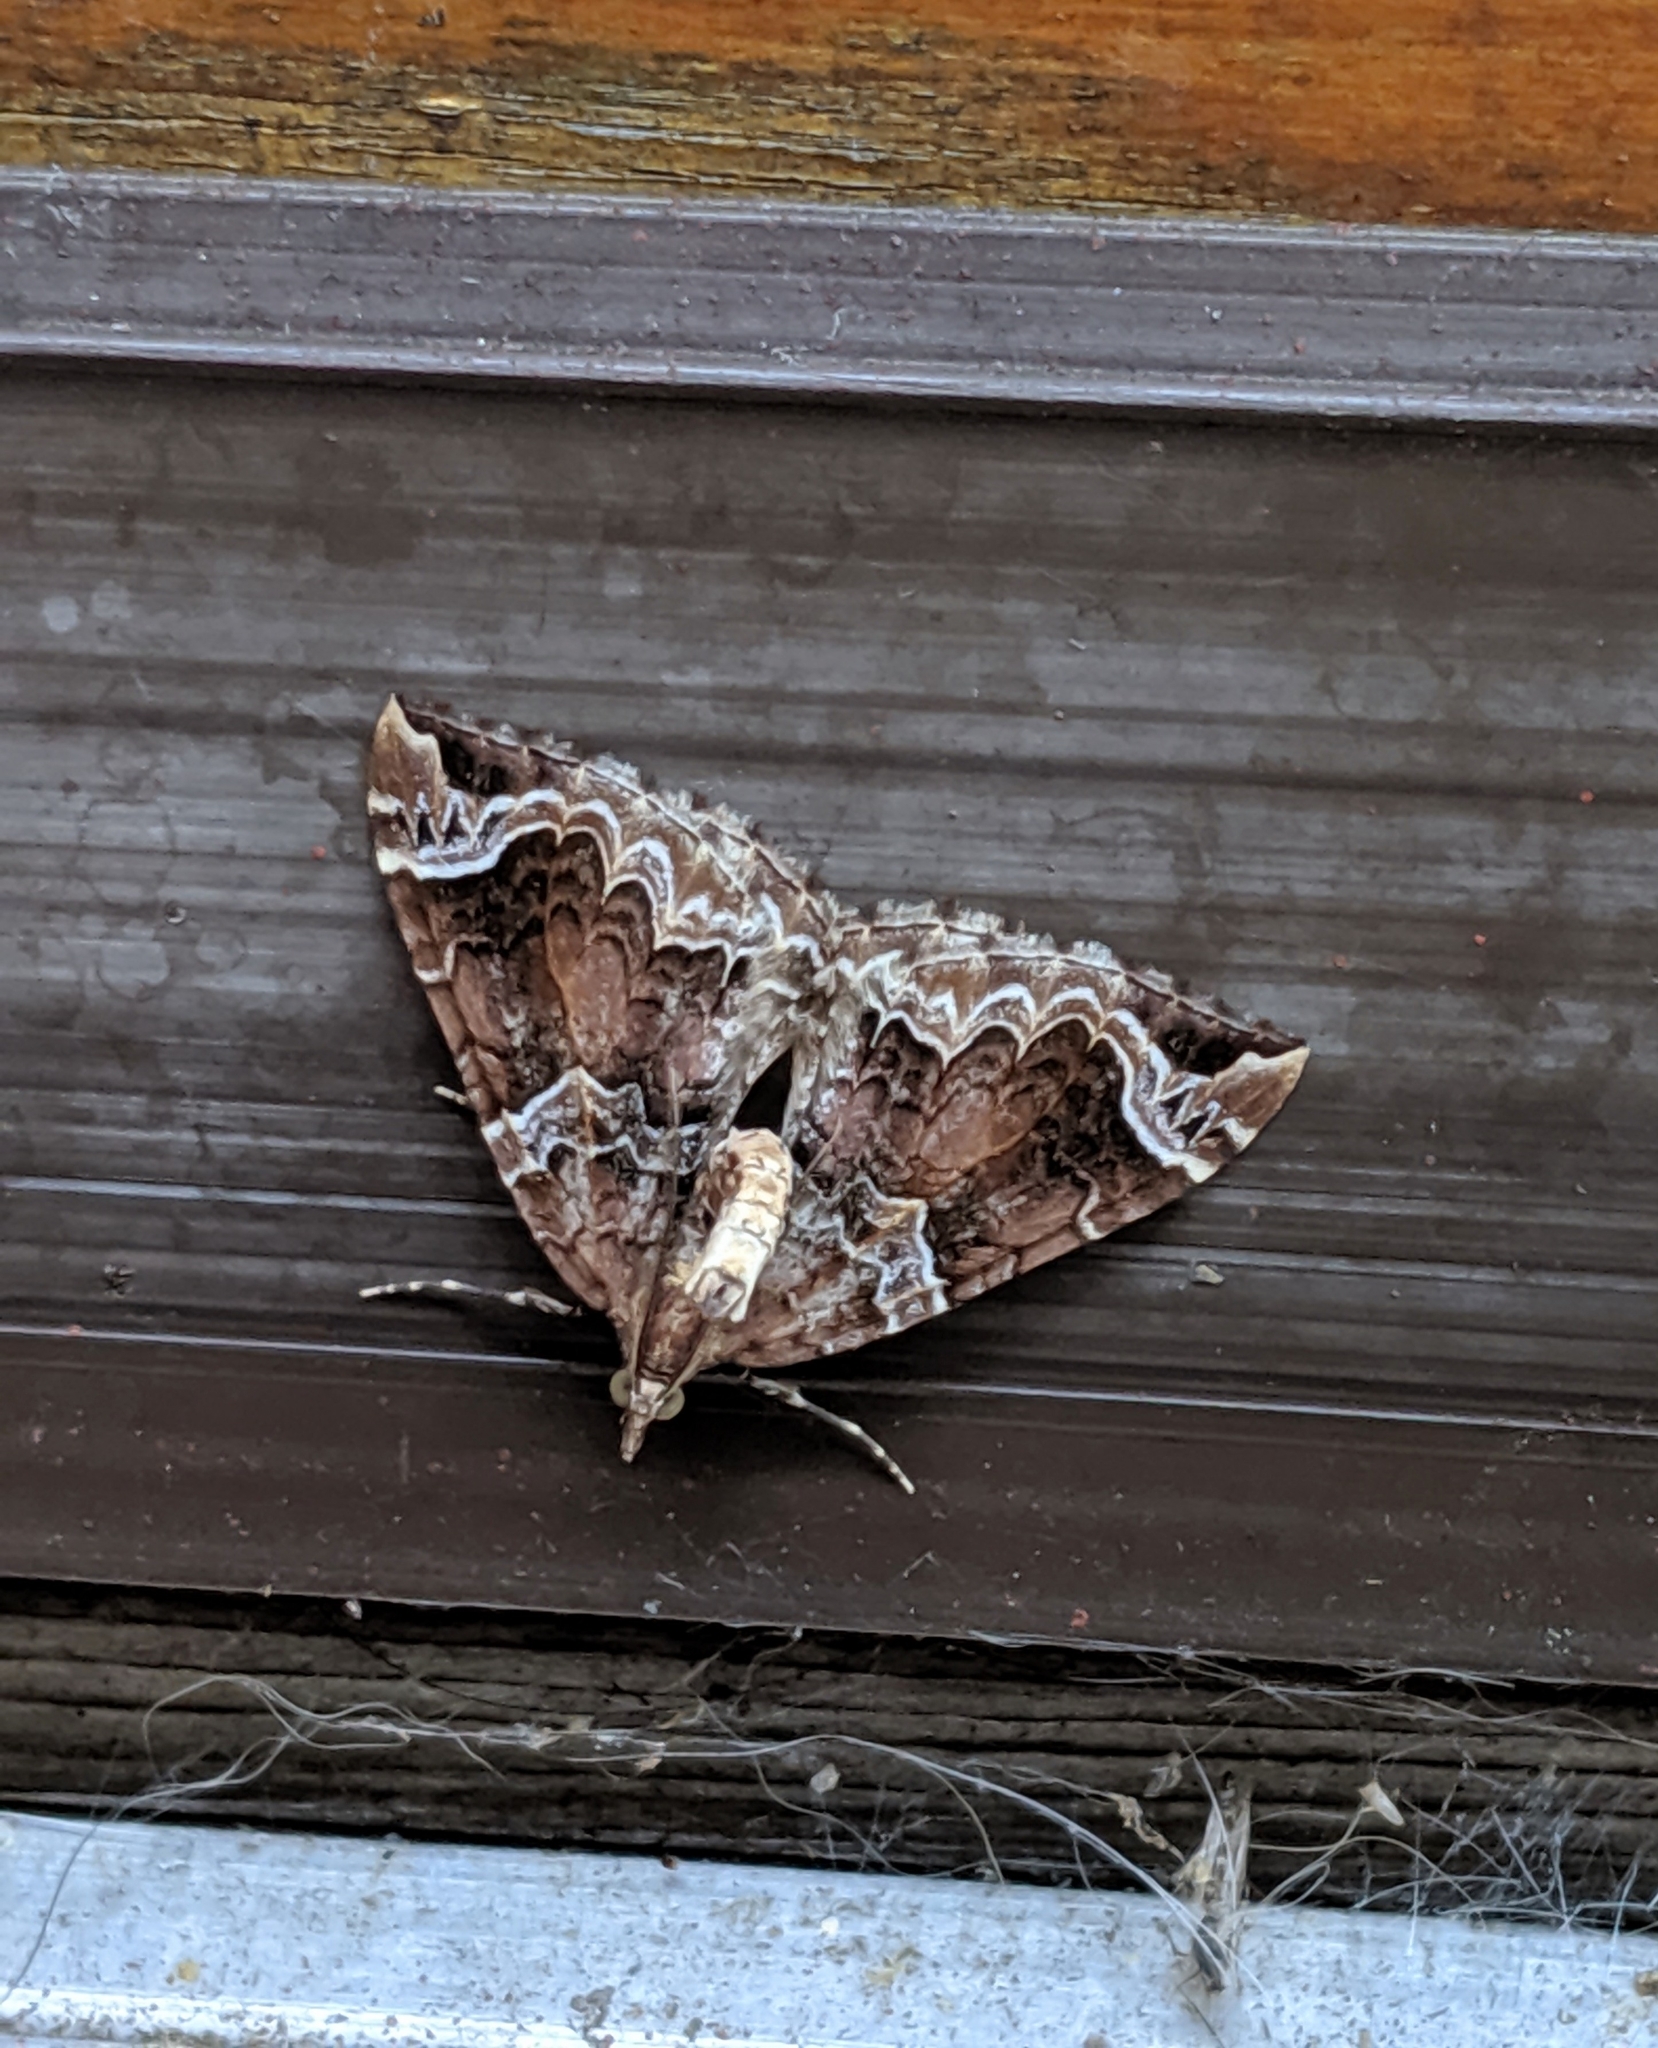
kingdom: Animalia
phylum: Arthropoda
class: Insecta
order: Lepidoptera
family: Geometridae
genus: Eulithis
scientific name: Eulithis xylina
